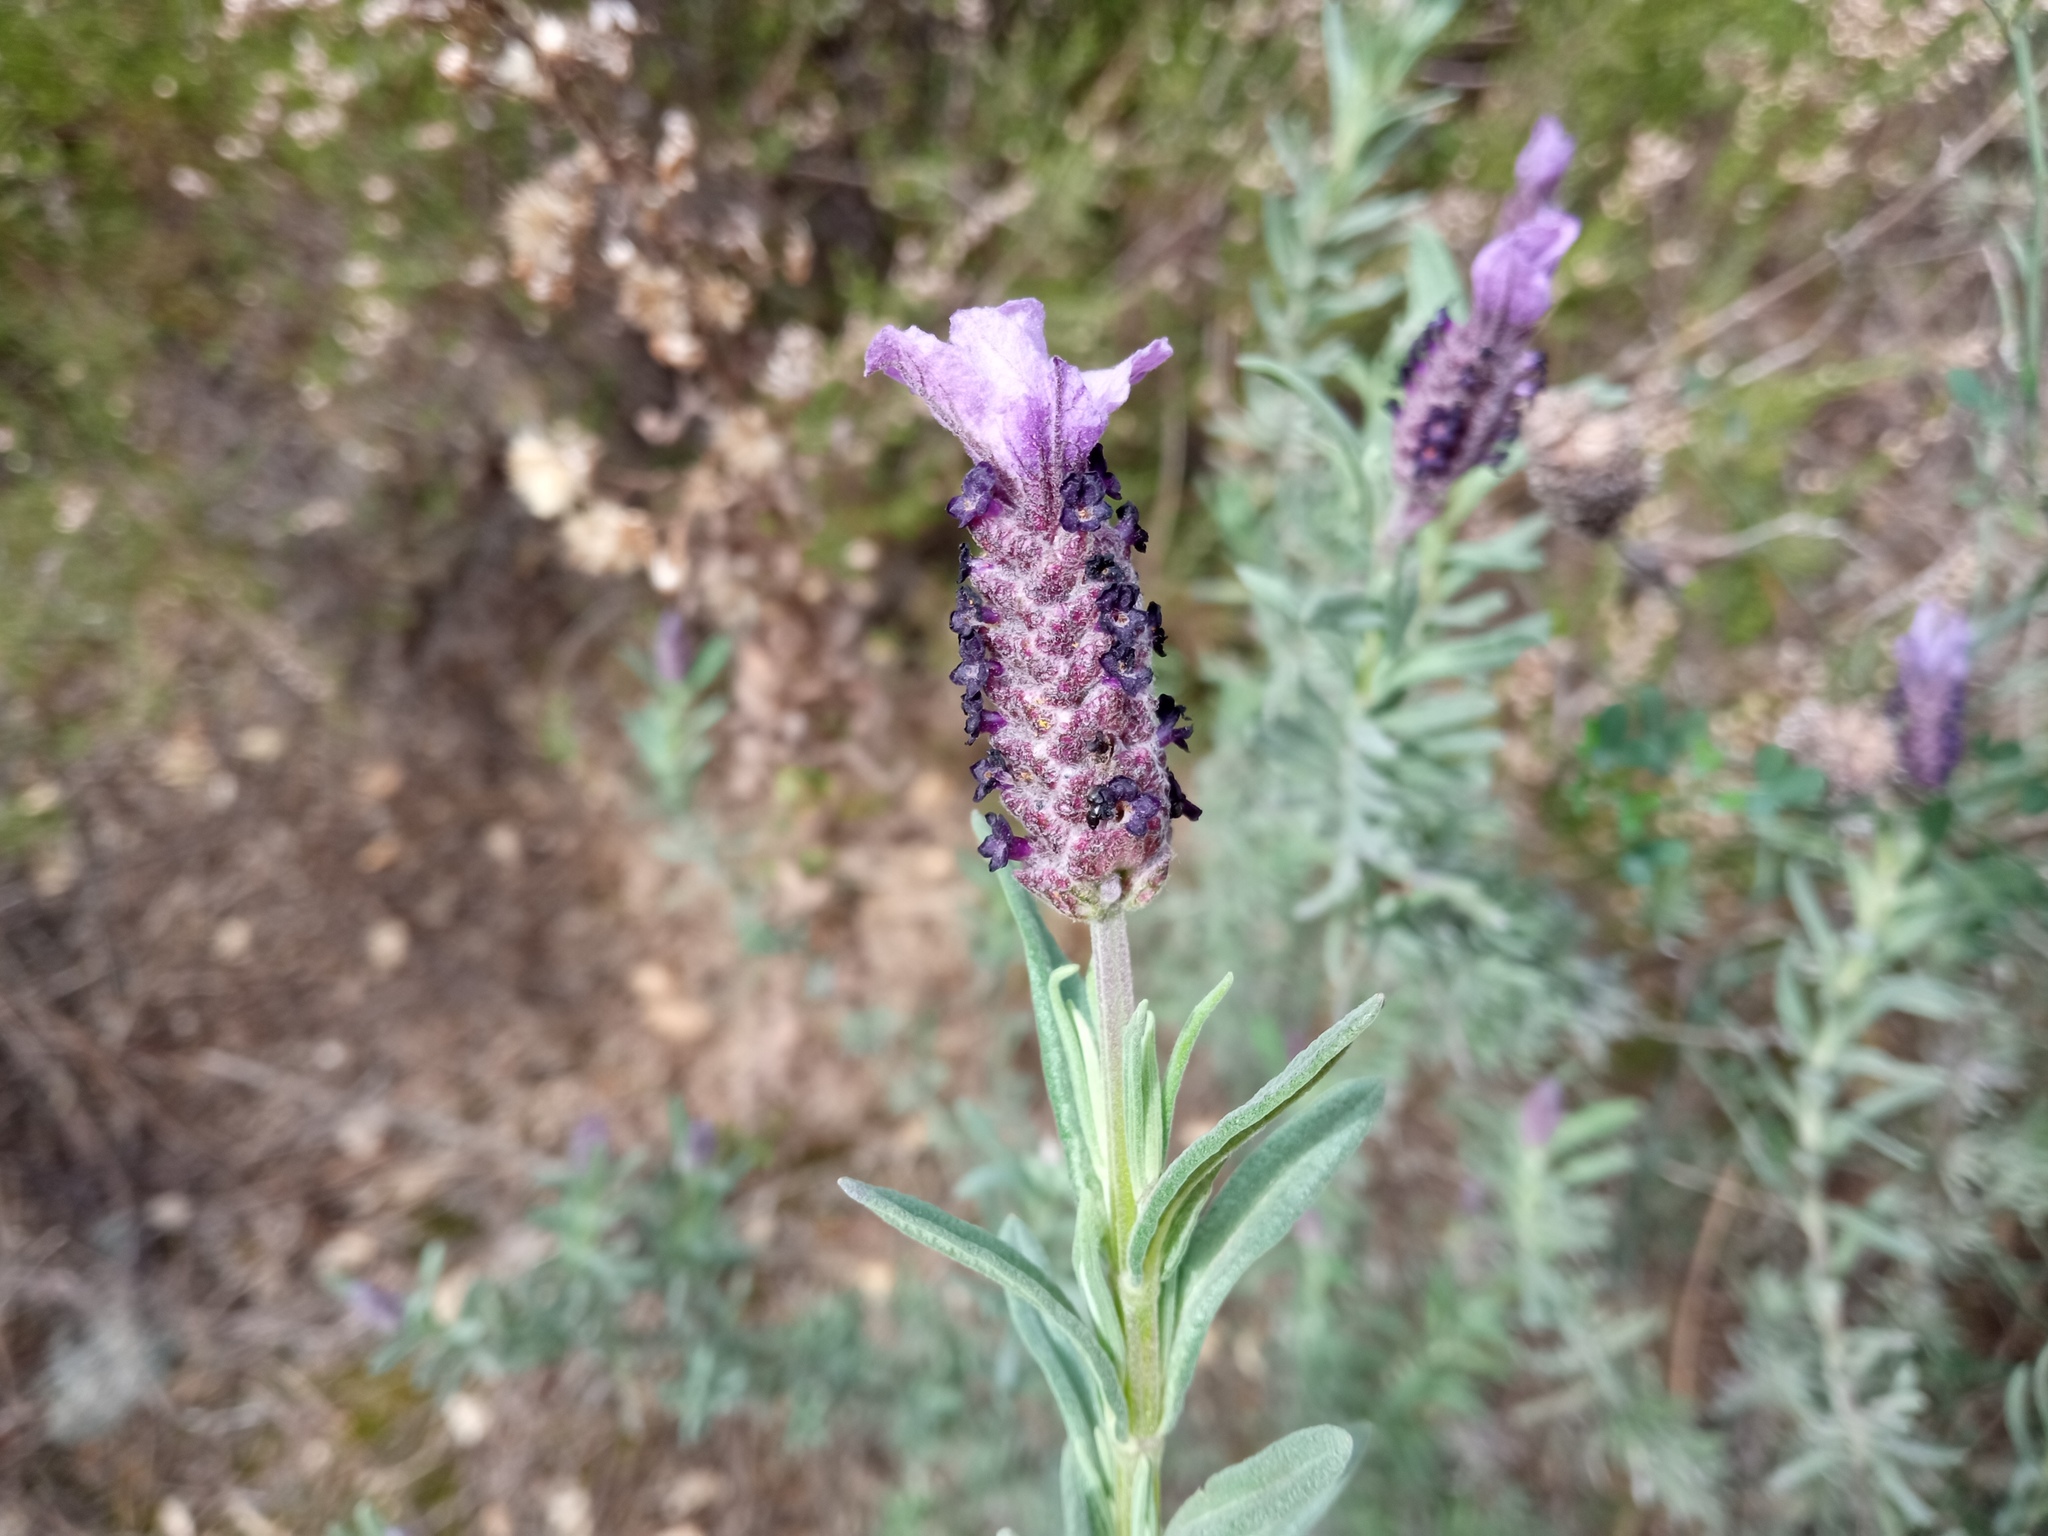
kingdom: Plantae
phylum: Tracheophyta
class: Magnoliopsida
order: Lamiales
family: Lamiaceae
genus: Lavandula
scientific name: Lavandula stoechas
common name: French lavender
